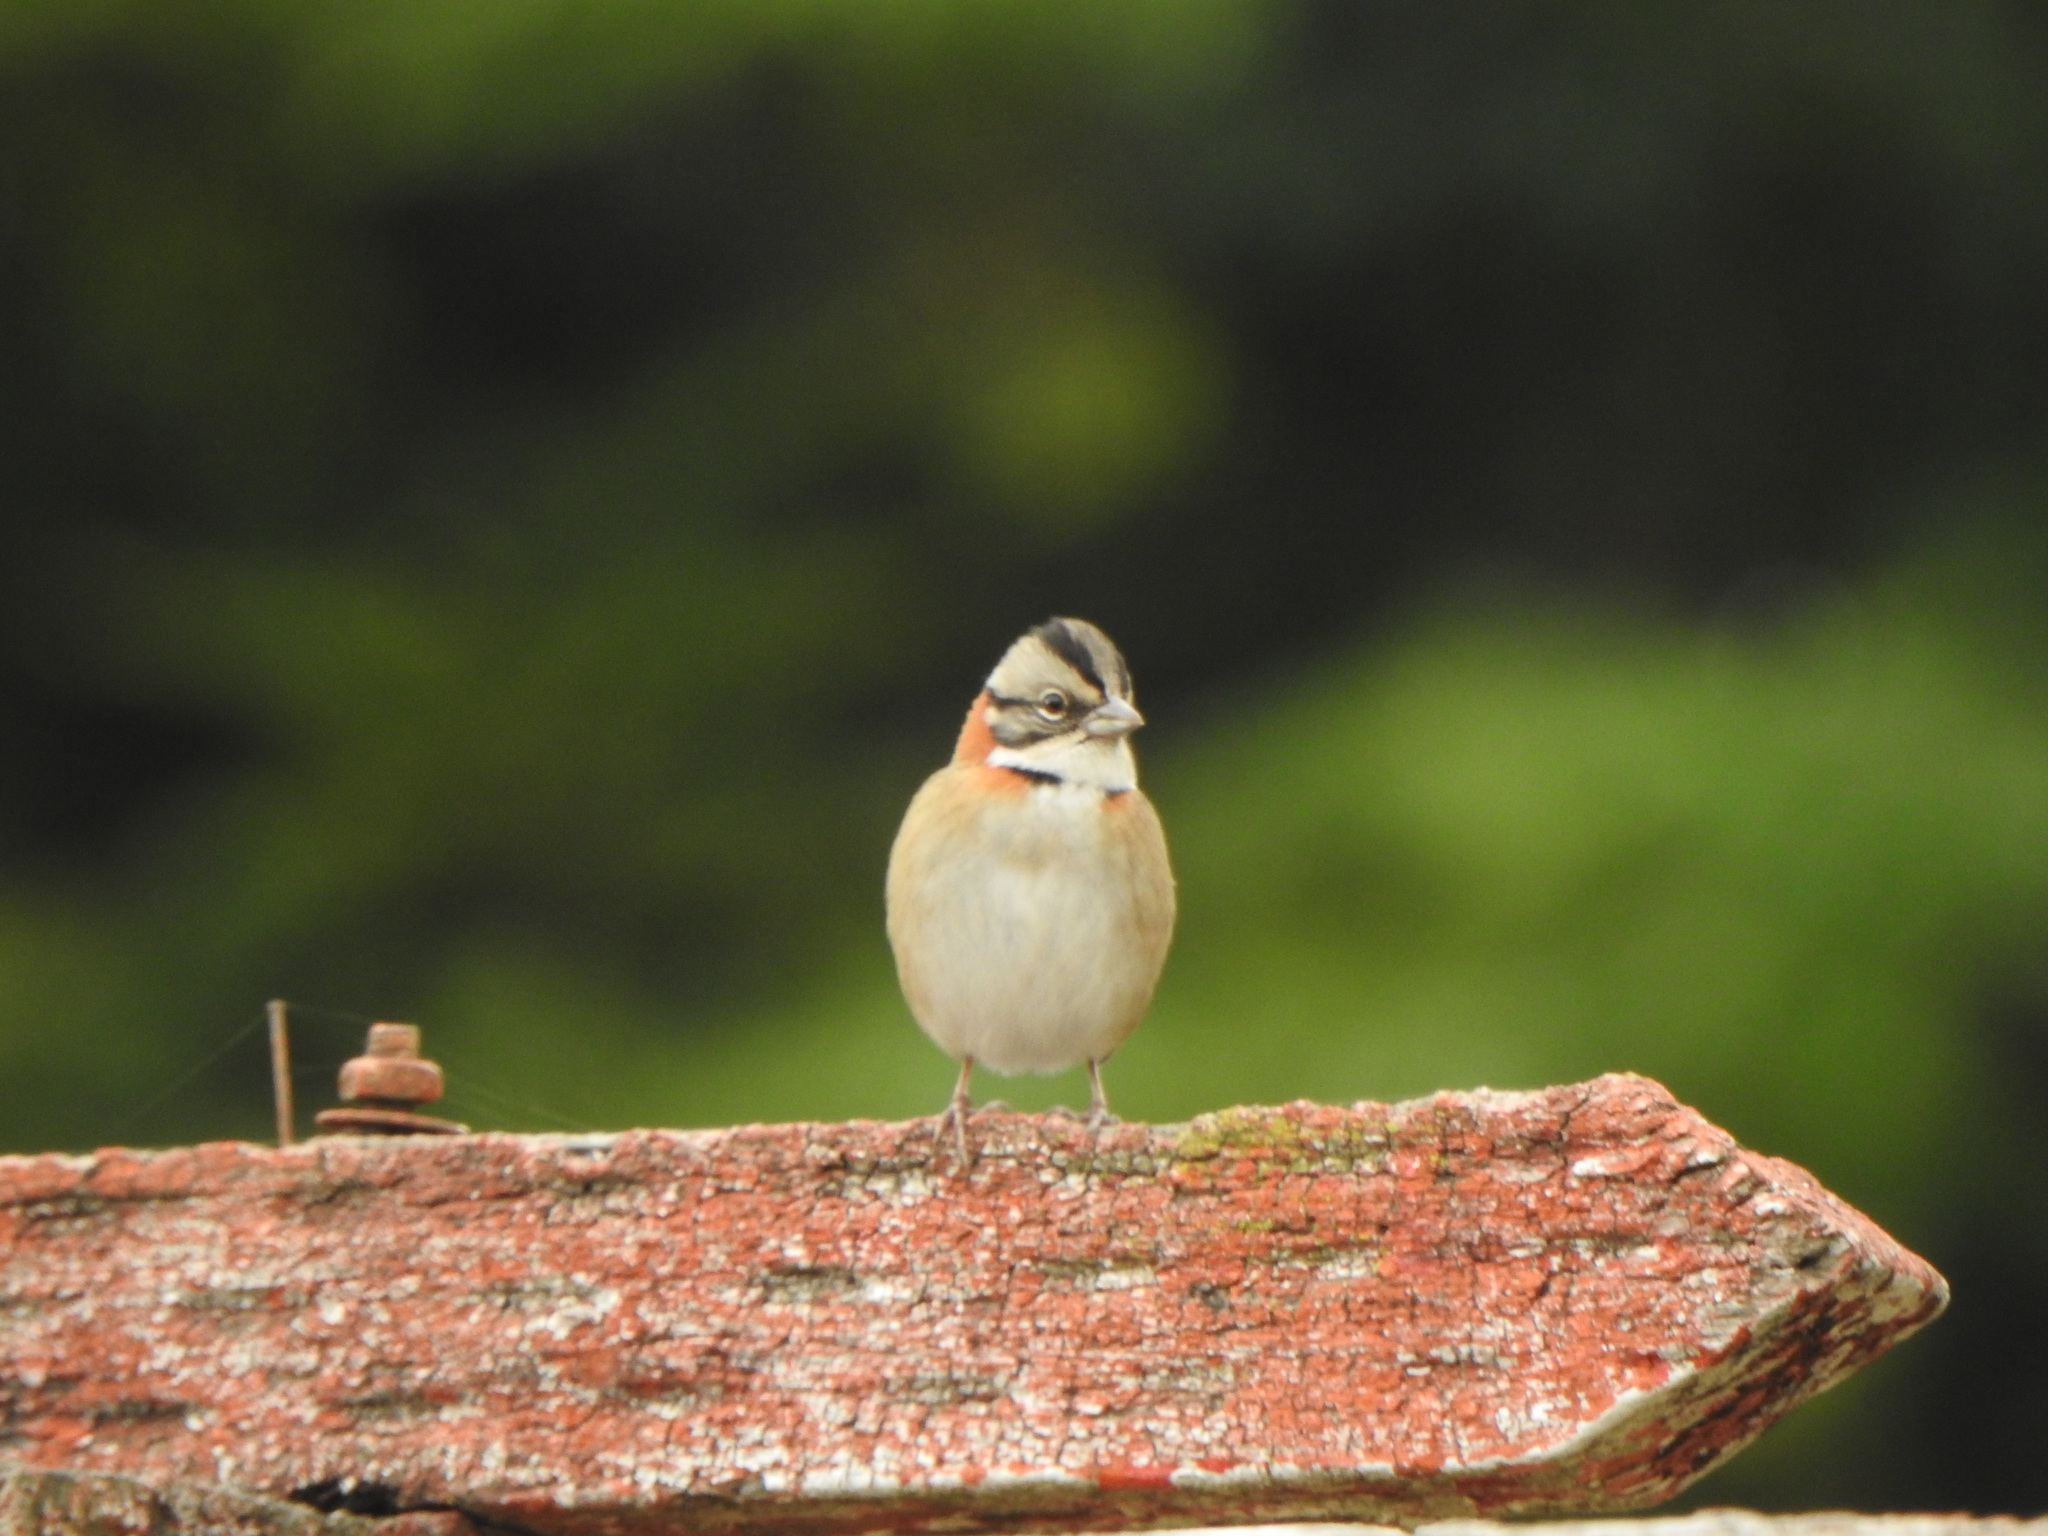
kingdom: Animalia
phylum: Chordata
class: Aves
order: Passeriformes
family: Passerellidae
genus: Zonotrichia
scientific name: Zonotrichia capensis
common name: Rufous-collared sparrow
